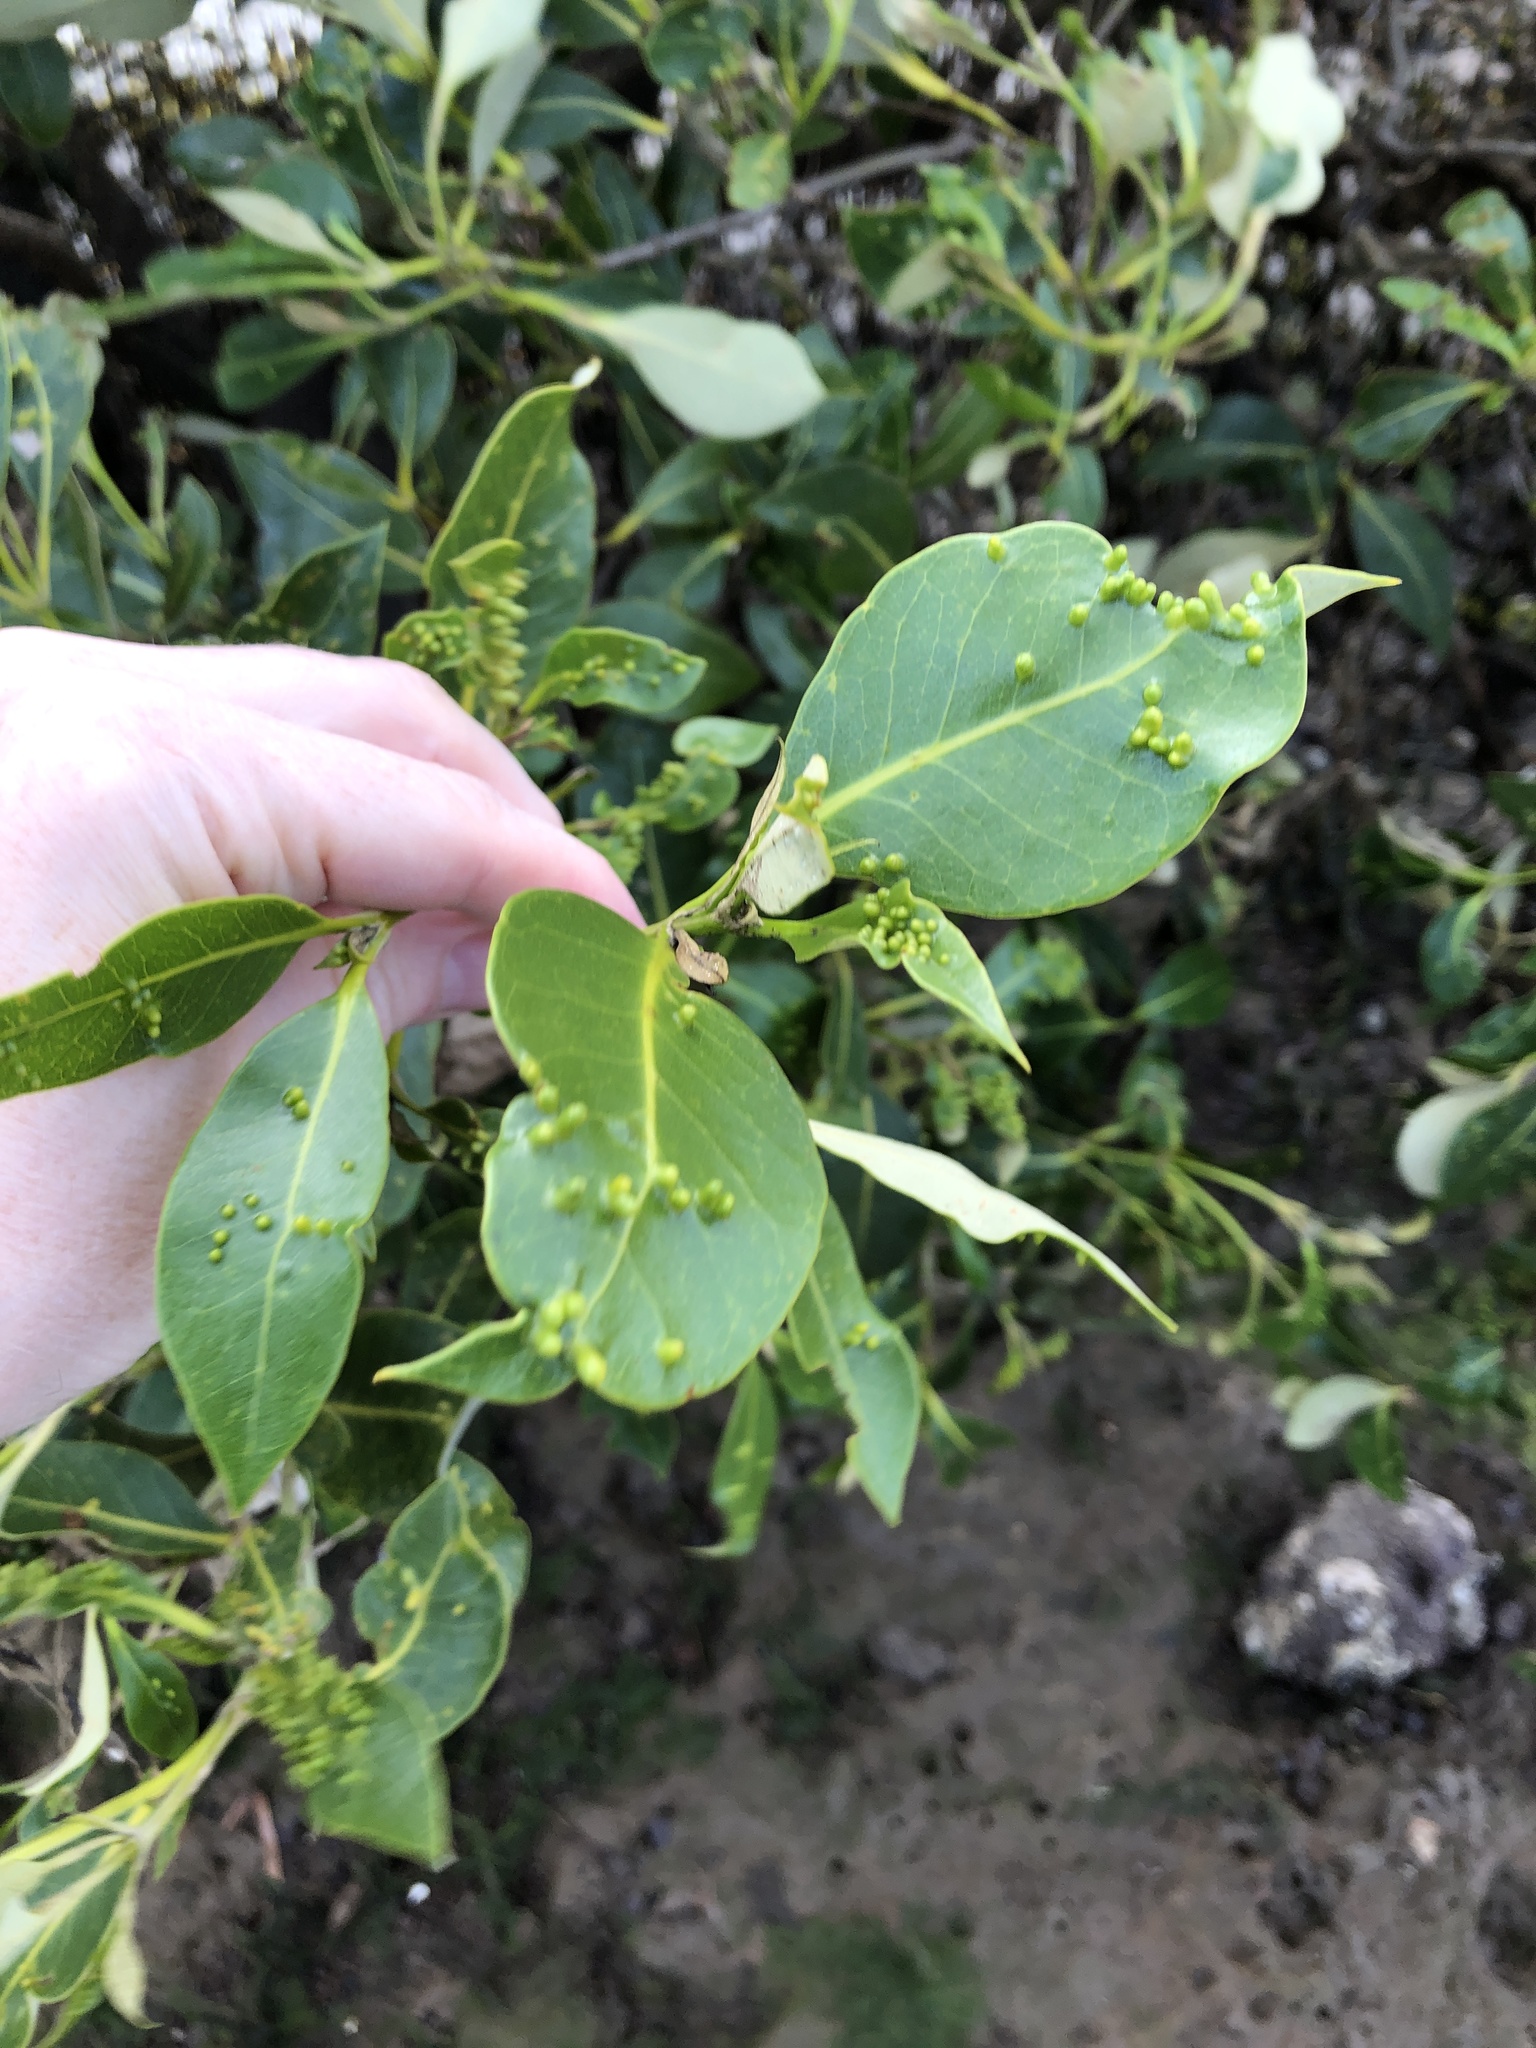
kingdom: Plantae
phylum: Tracheophyta
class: Magnoliopsida
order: Lamiales
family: Acanthaceae
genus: Avicennia
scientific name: Avicennia marina
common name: Gray mangrove
